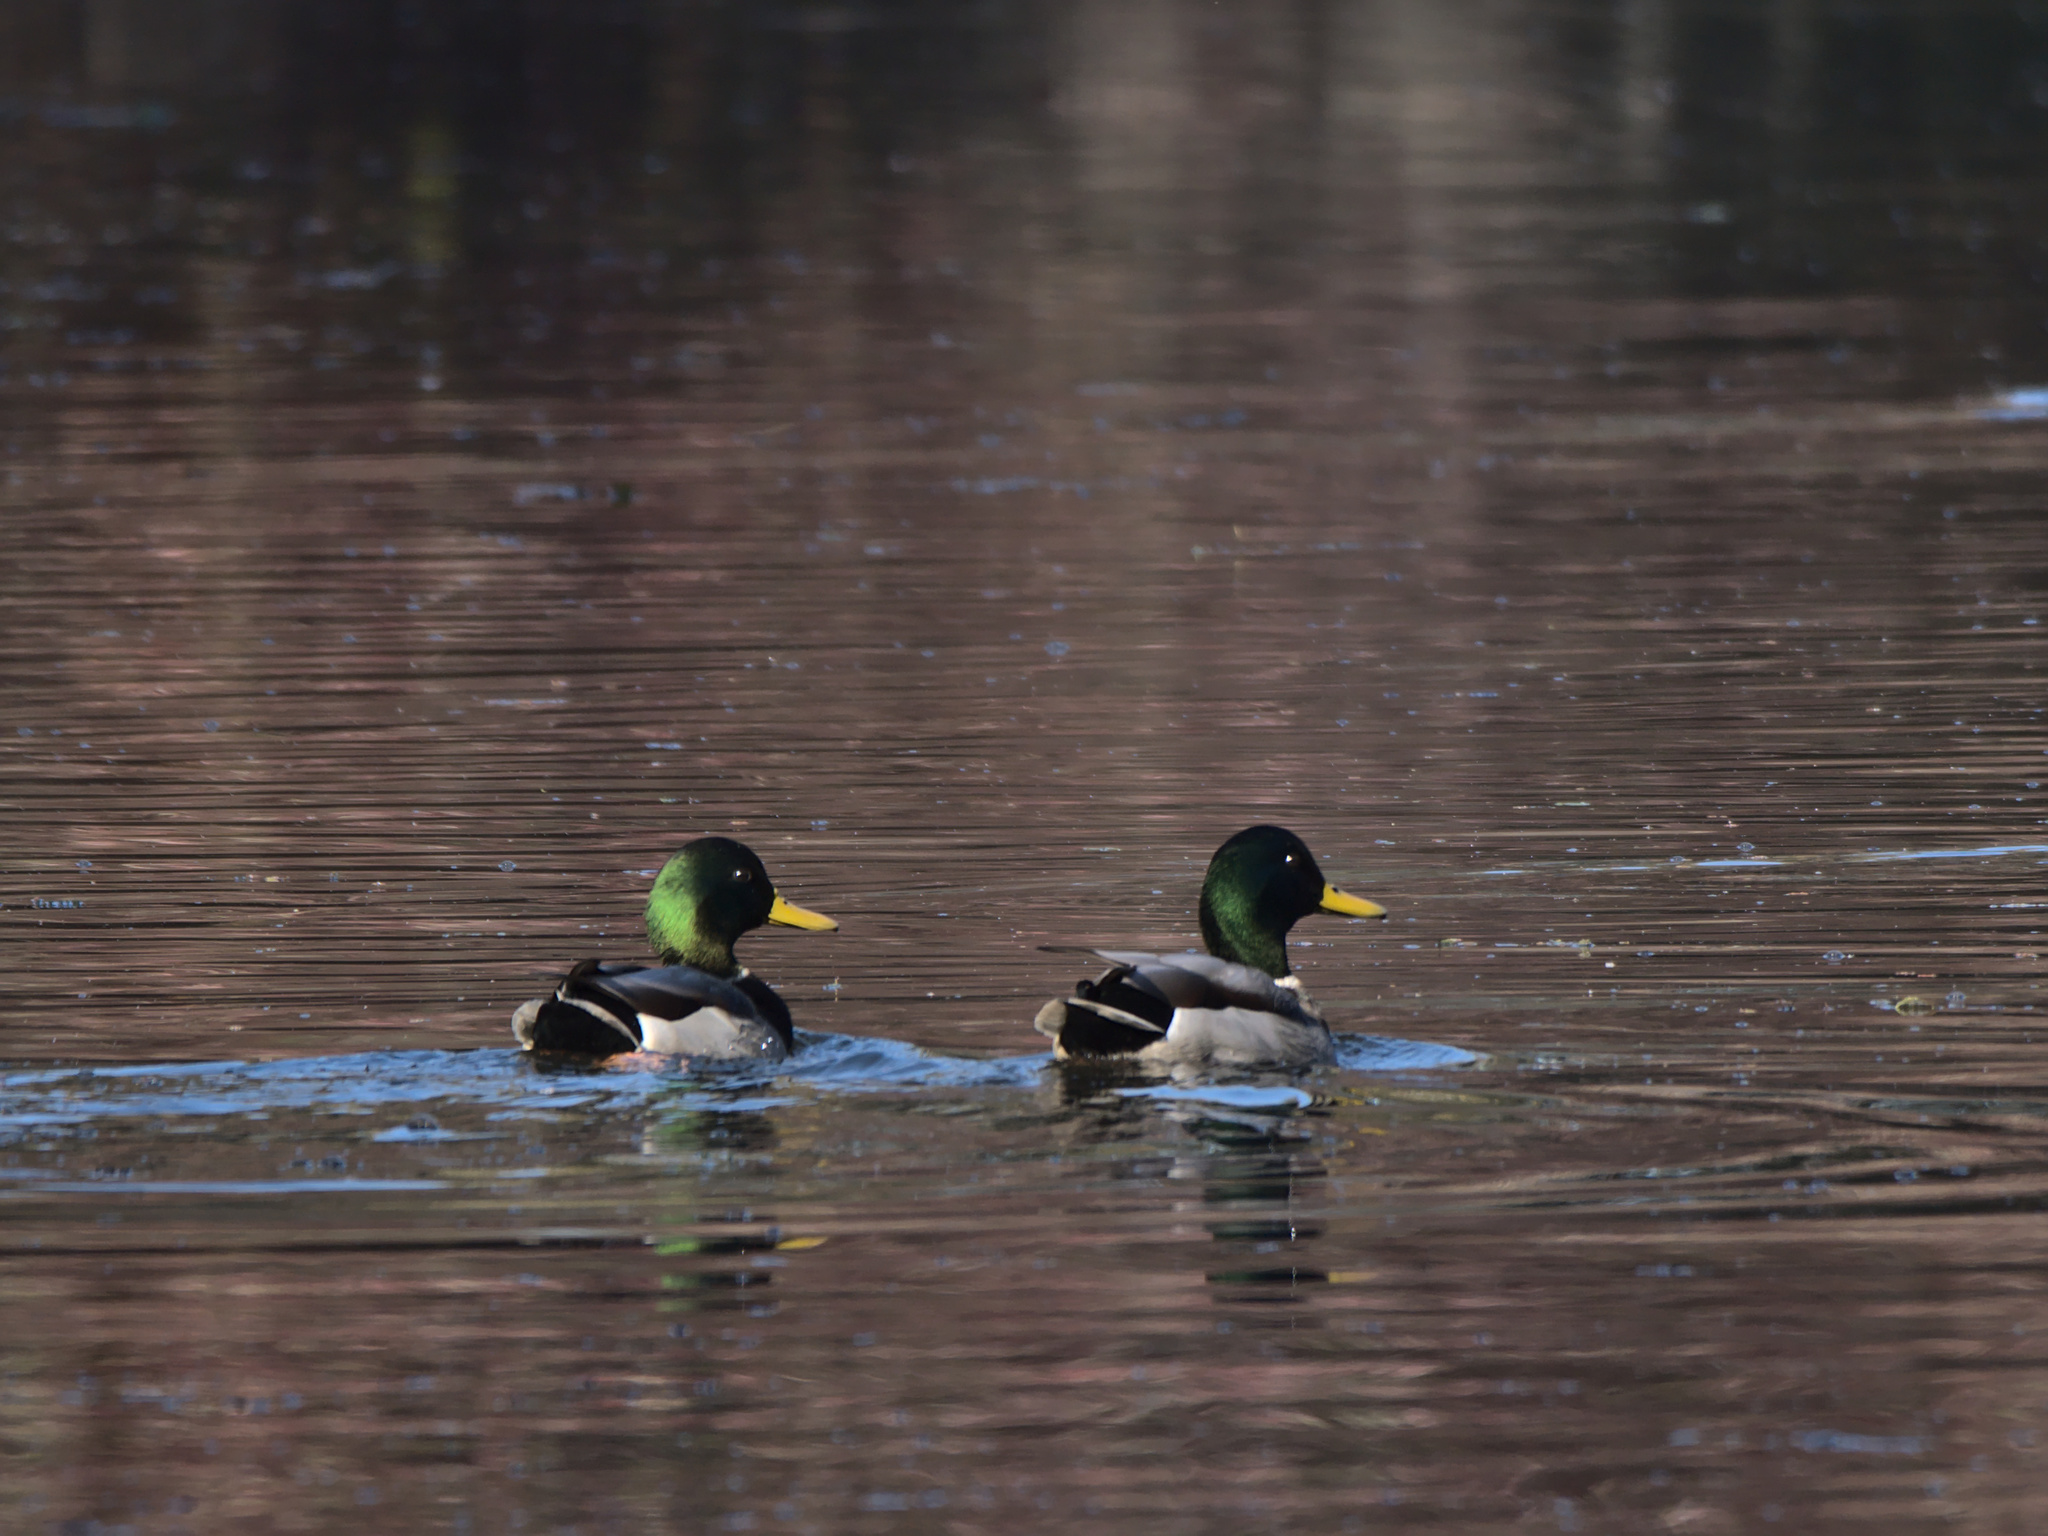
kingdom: Animalia
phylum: Chordata
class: Aves
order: Anseriformes
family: Anatidae
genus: Anas
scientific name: Anas platyrhynchos
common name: Mallard
